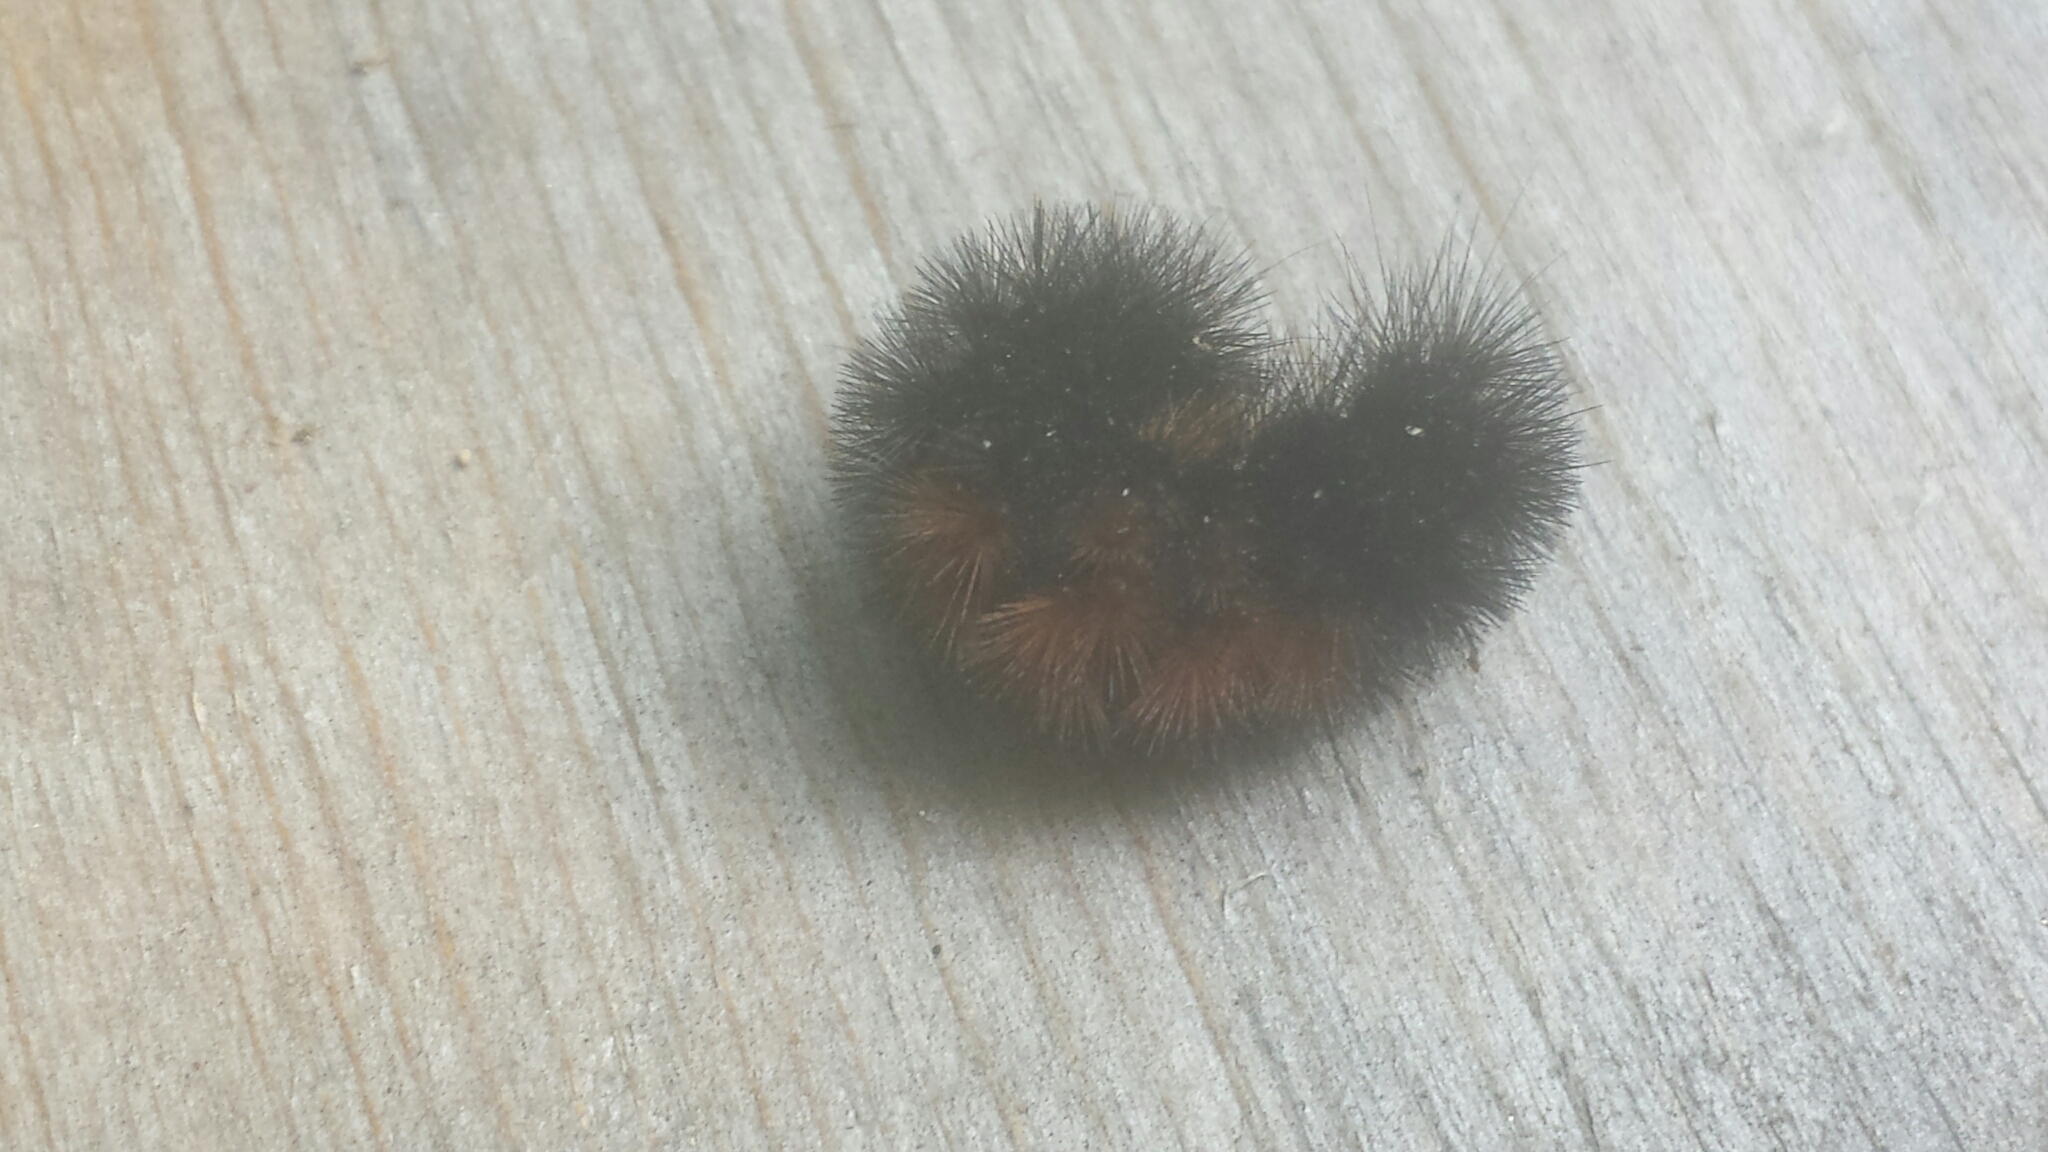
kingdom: Animalia
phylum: Arthropoda
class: Insecta
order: Lepidoptera
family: Erebidae
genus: Pyrrharctia
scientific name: Pyrrharctia isabella
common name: Isabella tiger moth
